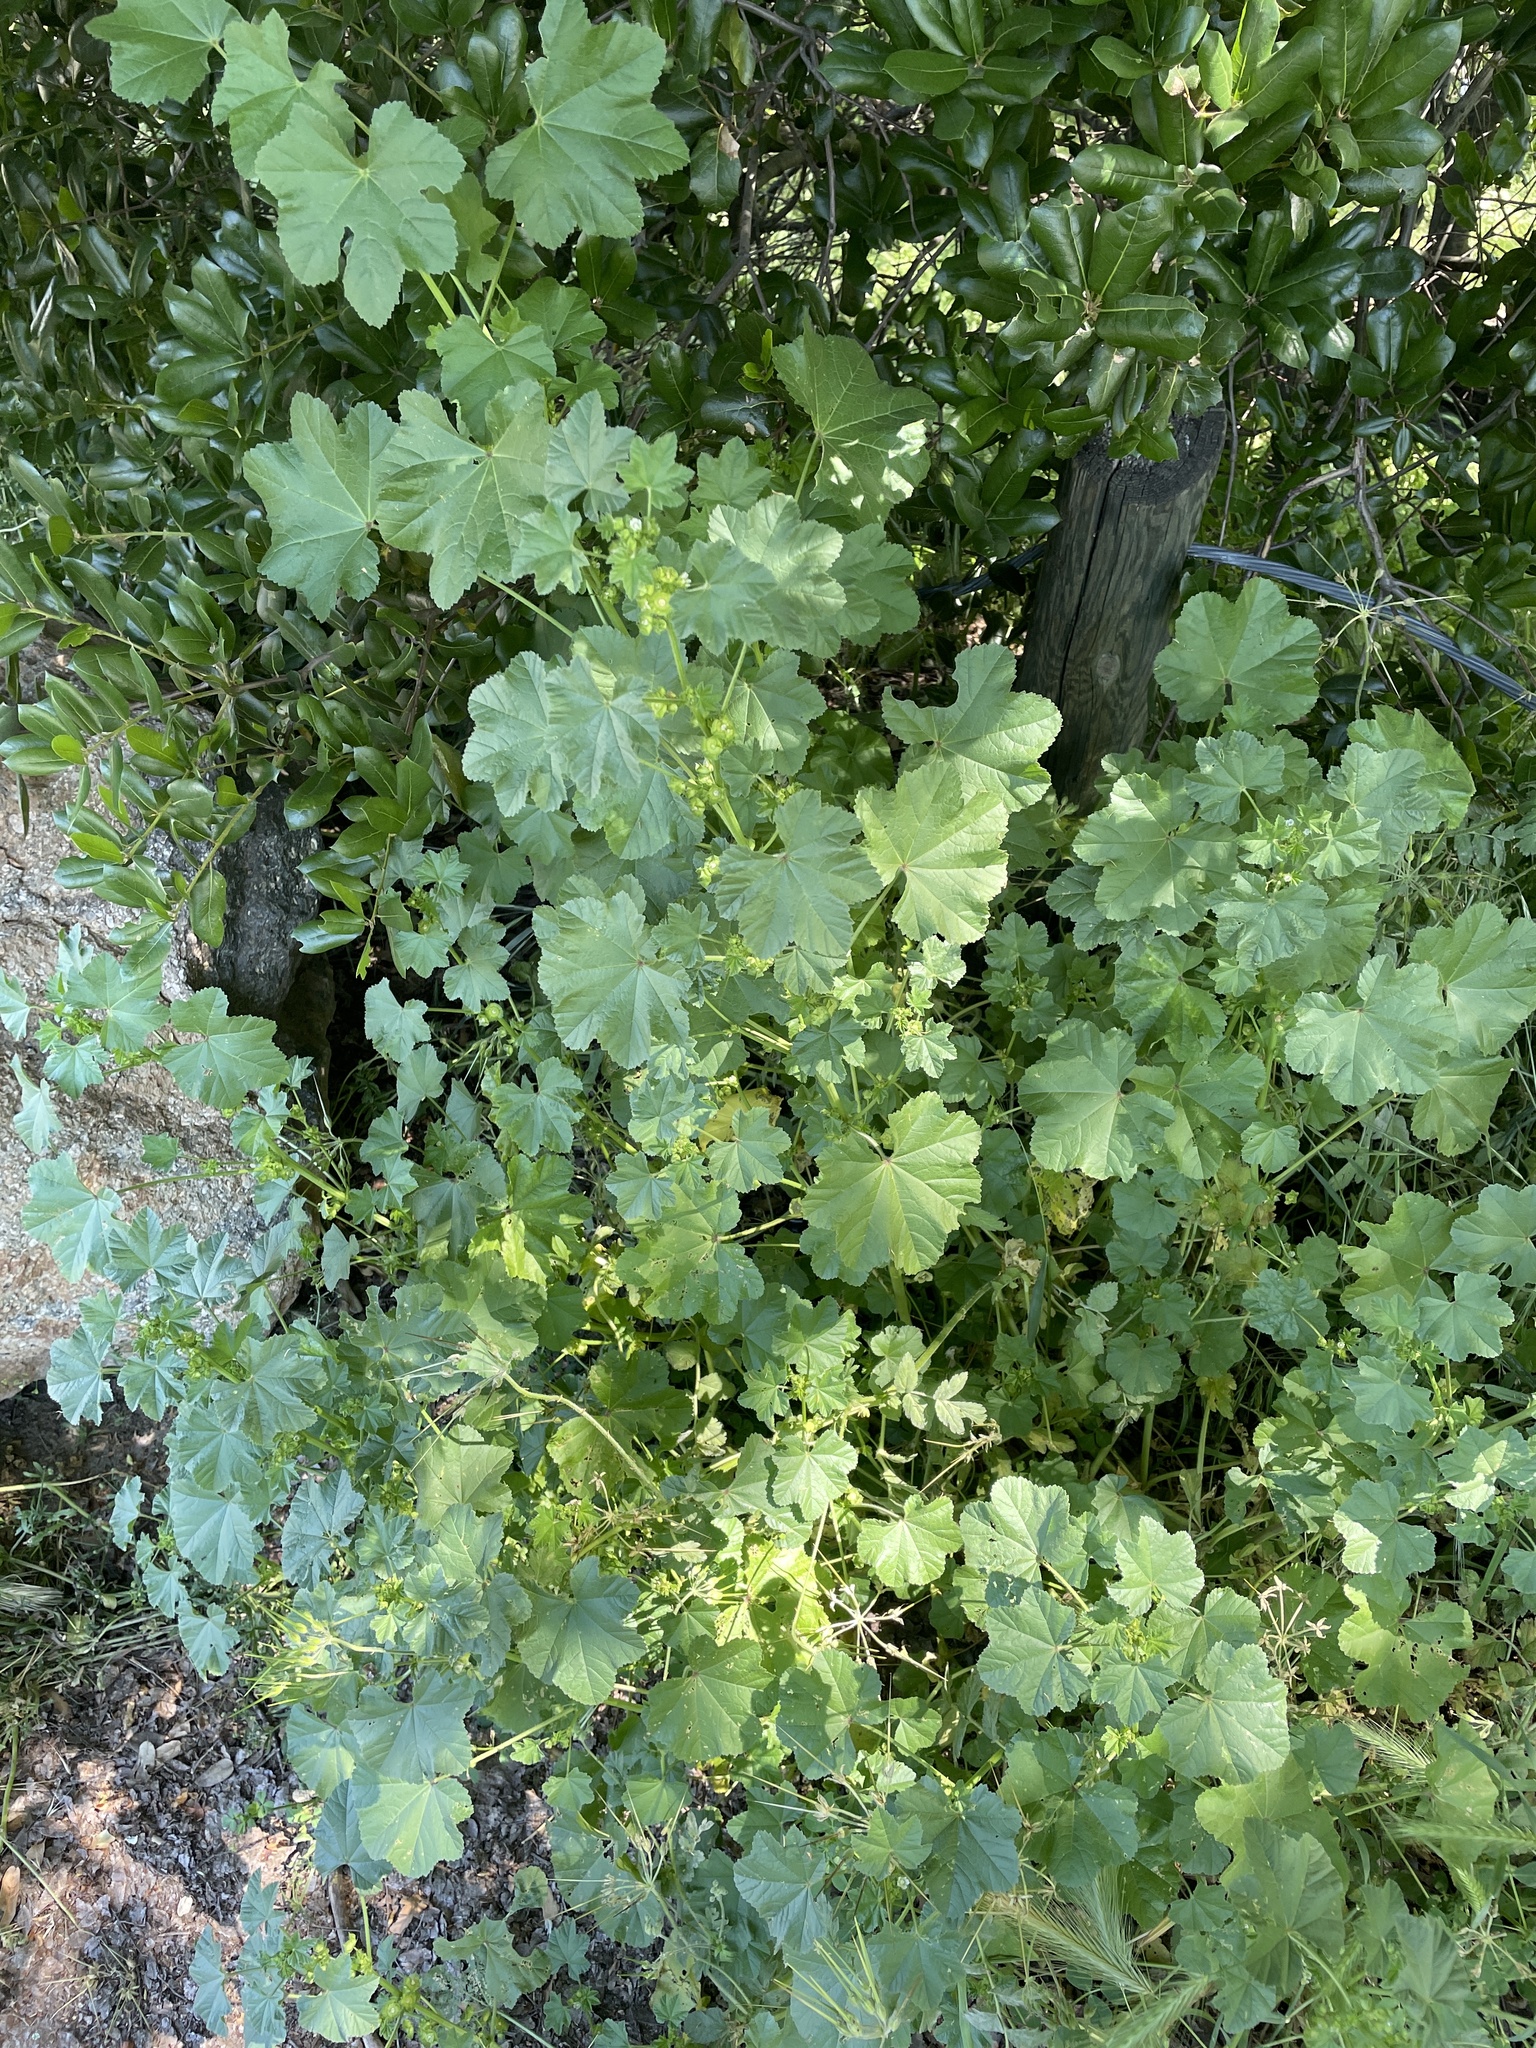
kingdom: Plantae
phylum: Tracheophyta
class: Magnoliopsida
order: Malvales
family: Malvaceae
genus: Malva
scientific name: Malva parviflora
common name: Least mallow
